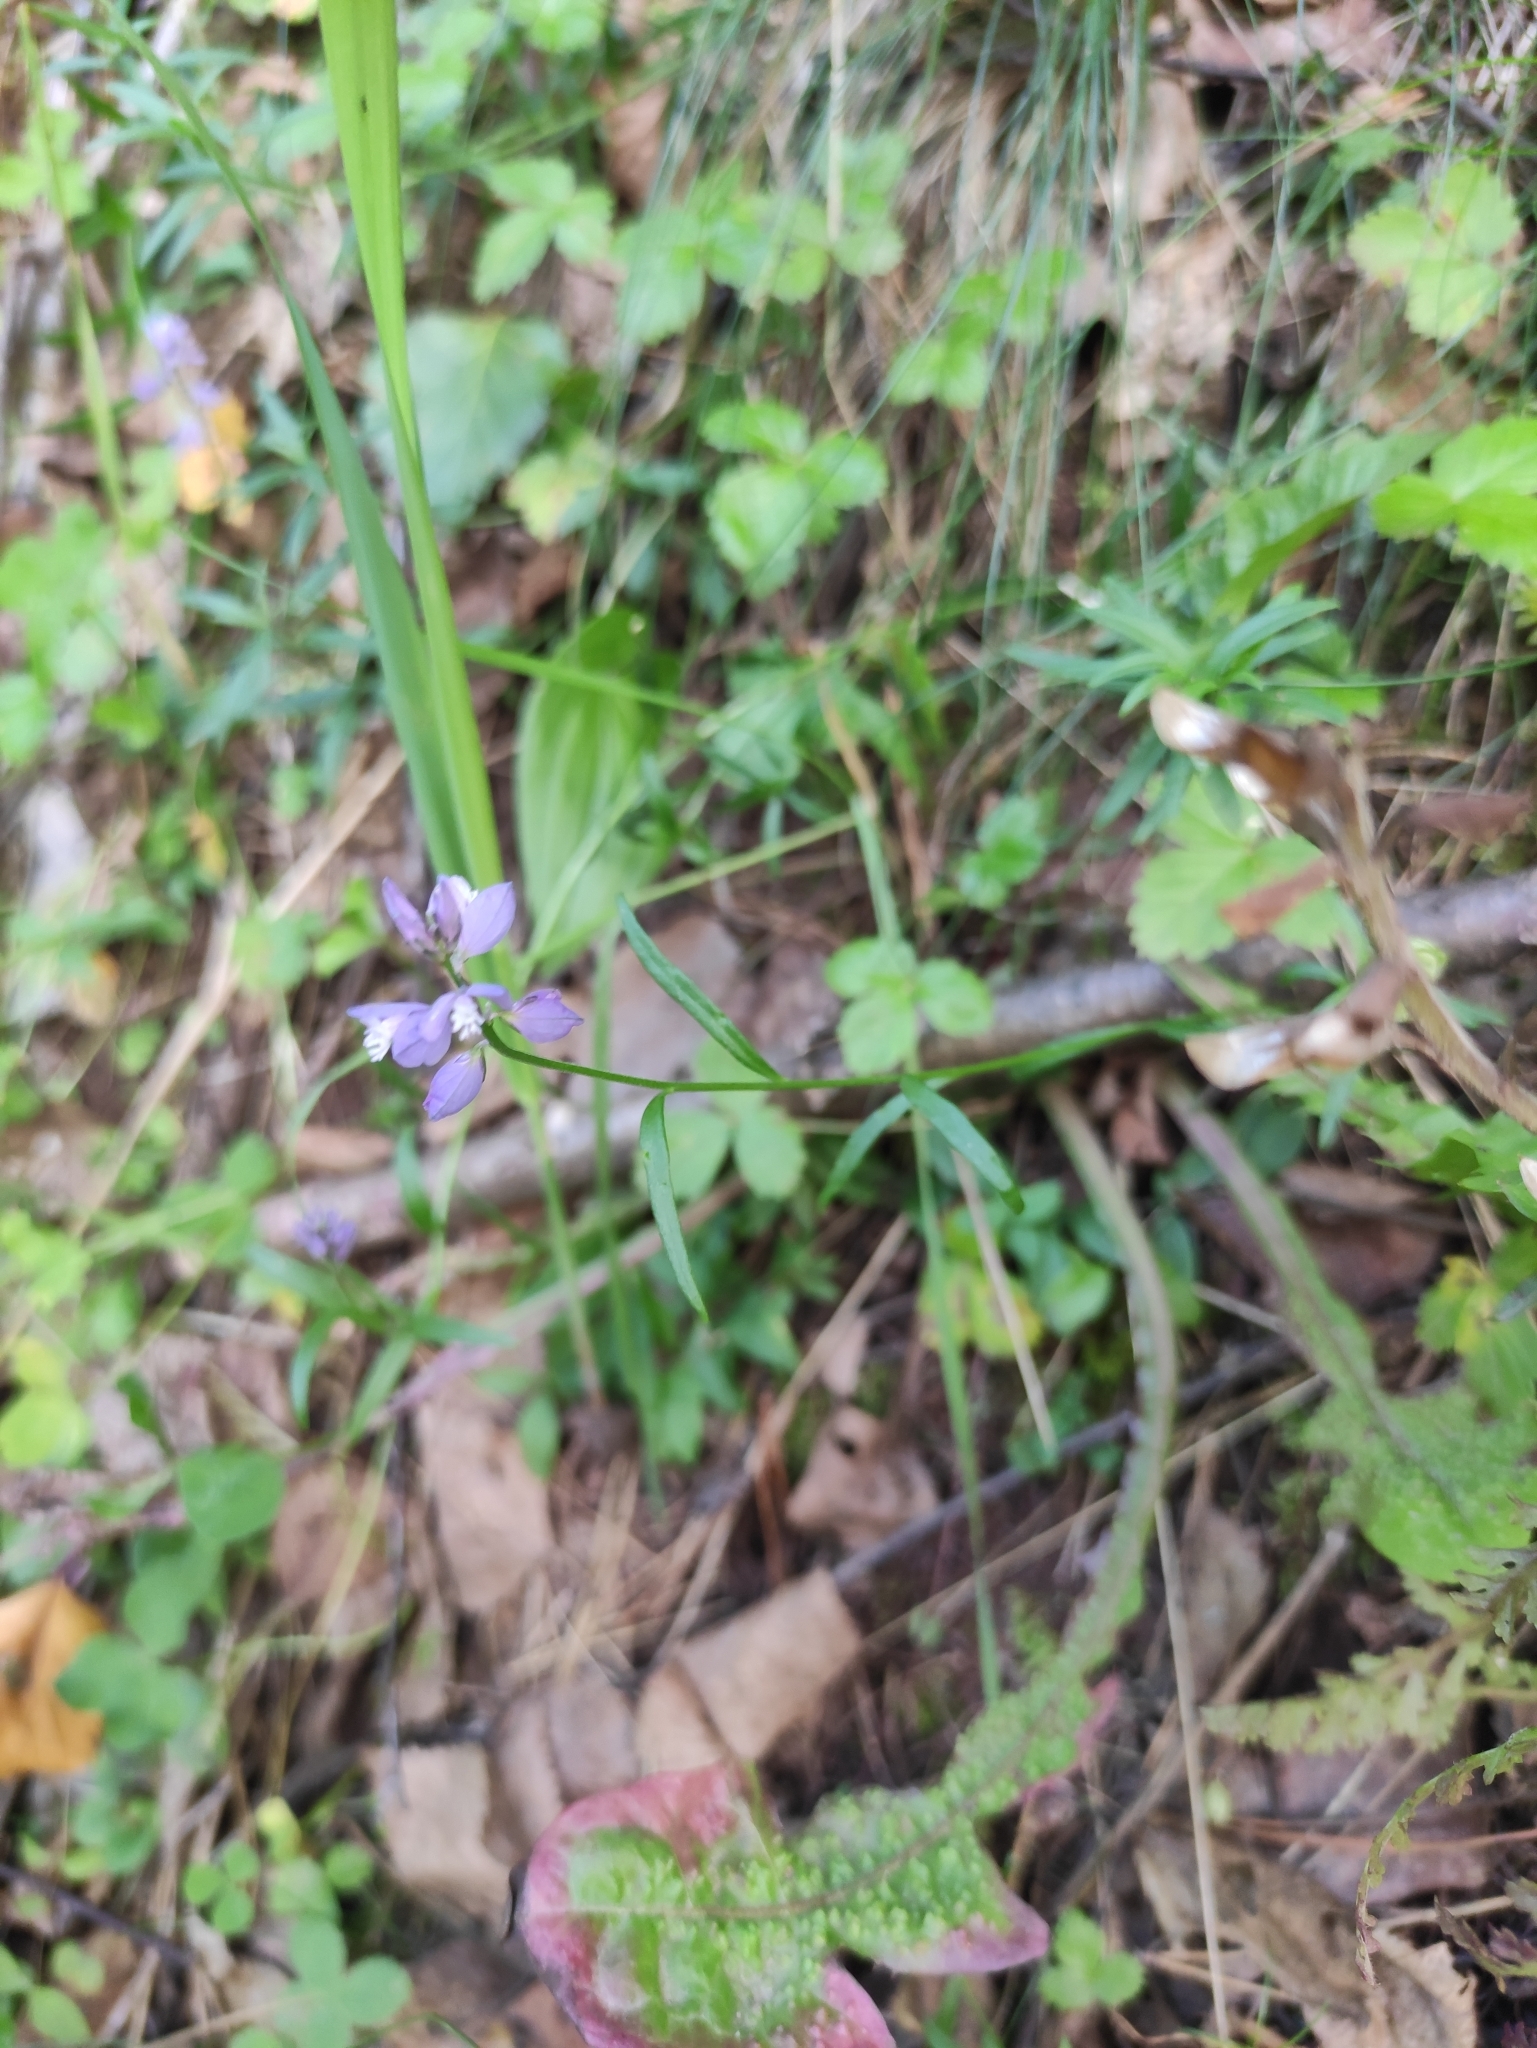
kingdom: Plantae
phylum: Tracheophyta
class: Magnoliopsida
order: Fabales
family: Polygalaceae
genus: Polygala
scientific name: Polygala comosa
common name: Tufted milkwort
